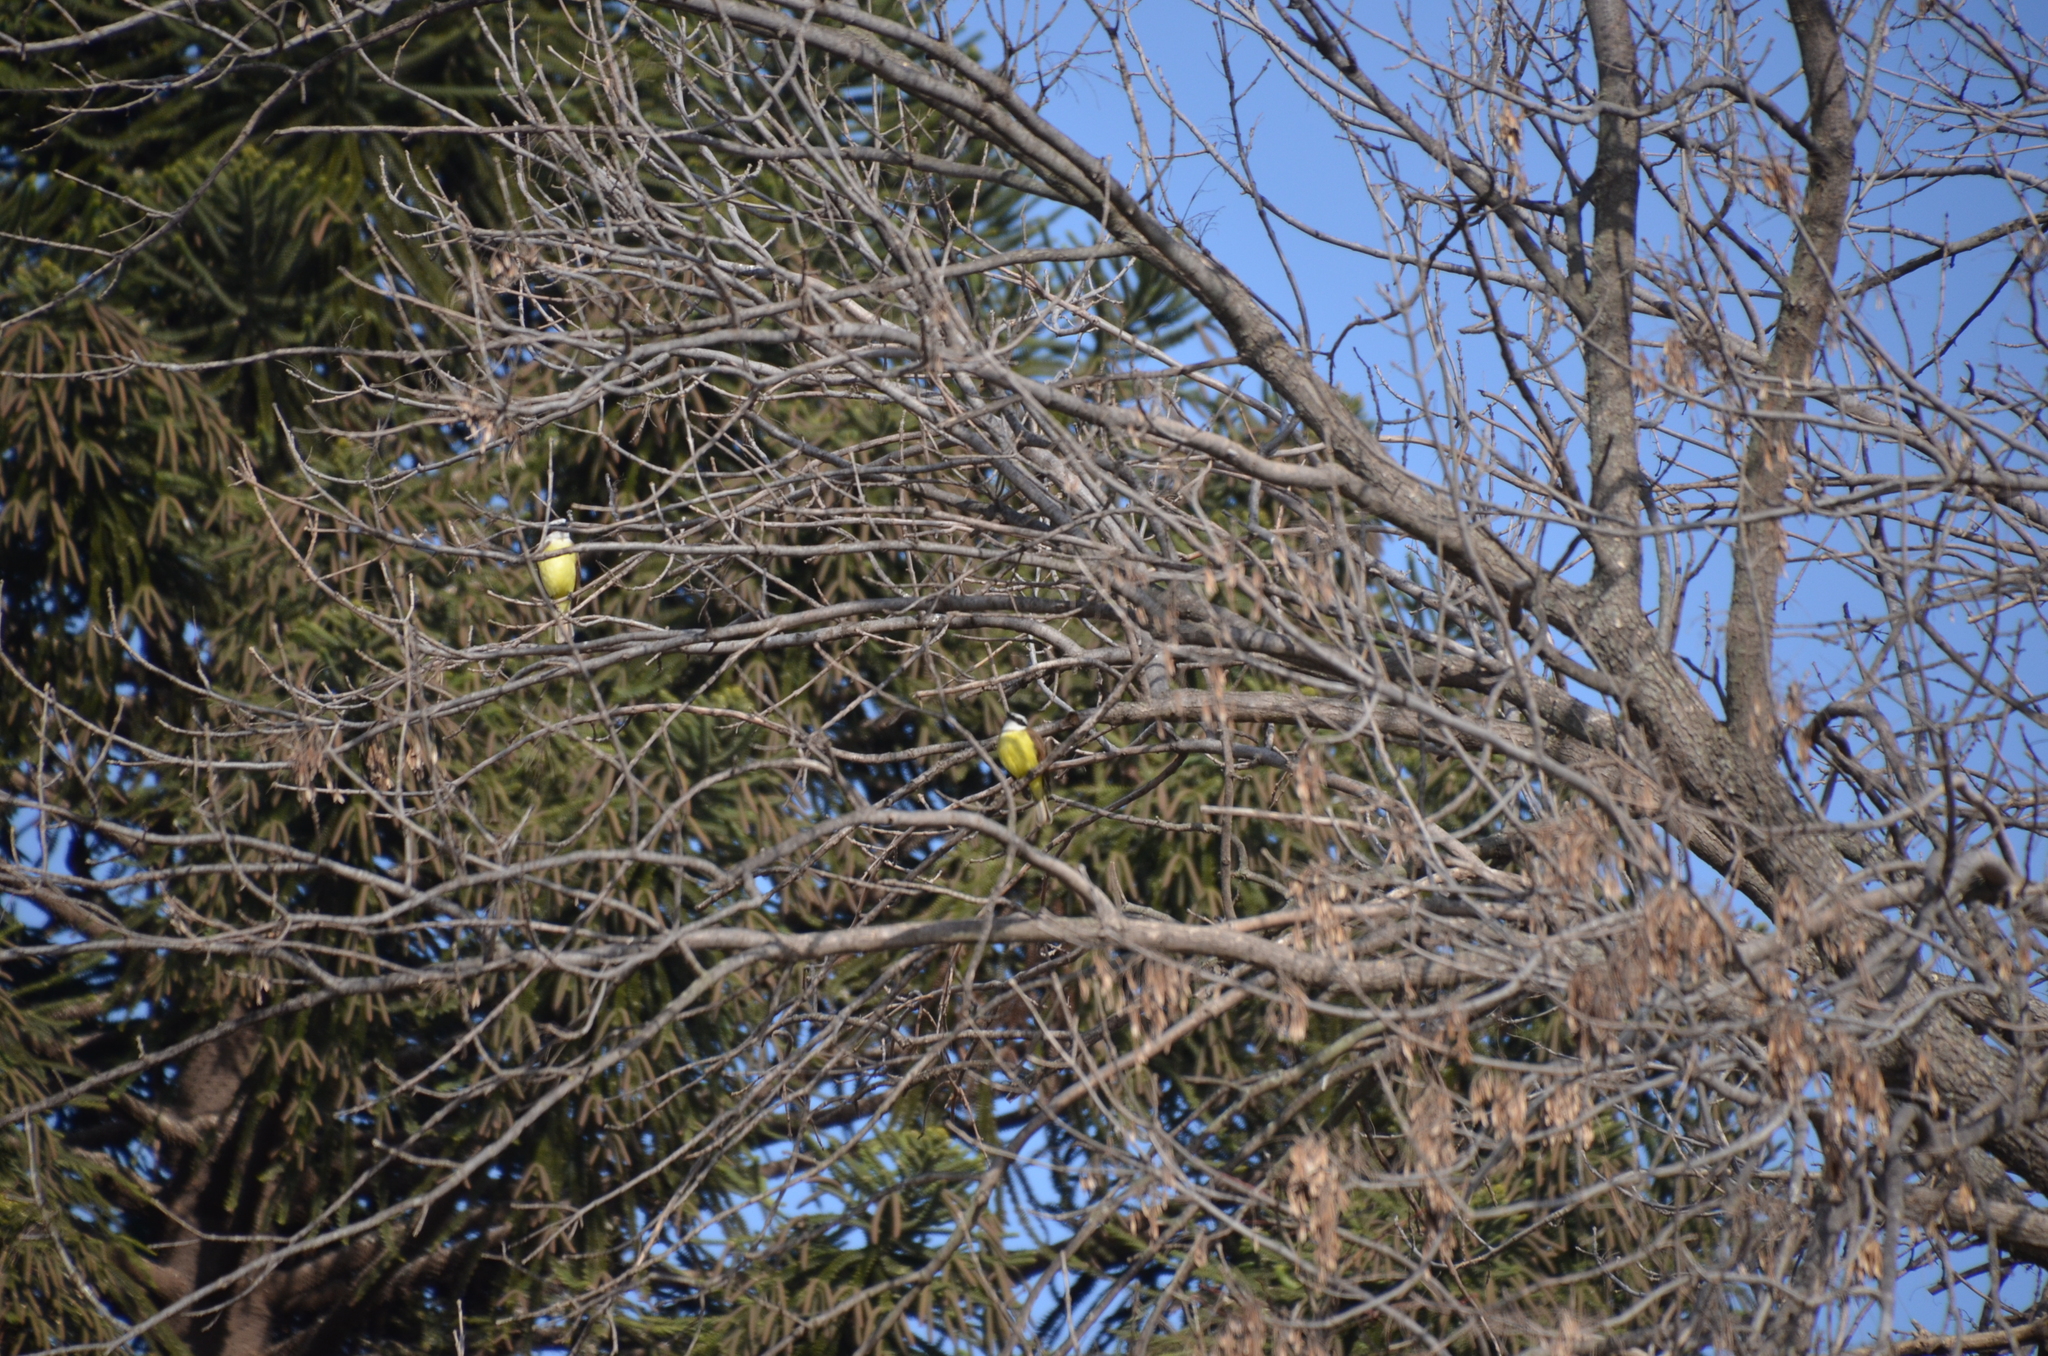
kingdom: Animalia
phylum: Chordata
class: Aves
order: Passeriformes
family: Tyrannidae
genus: Pitangus
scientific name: Pitangus sulphuratus
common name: Great kiskadee
